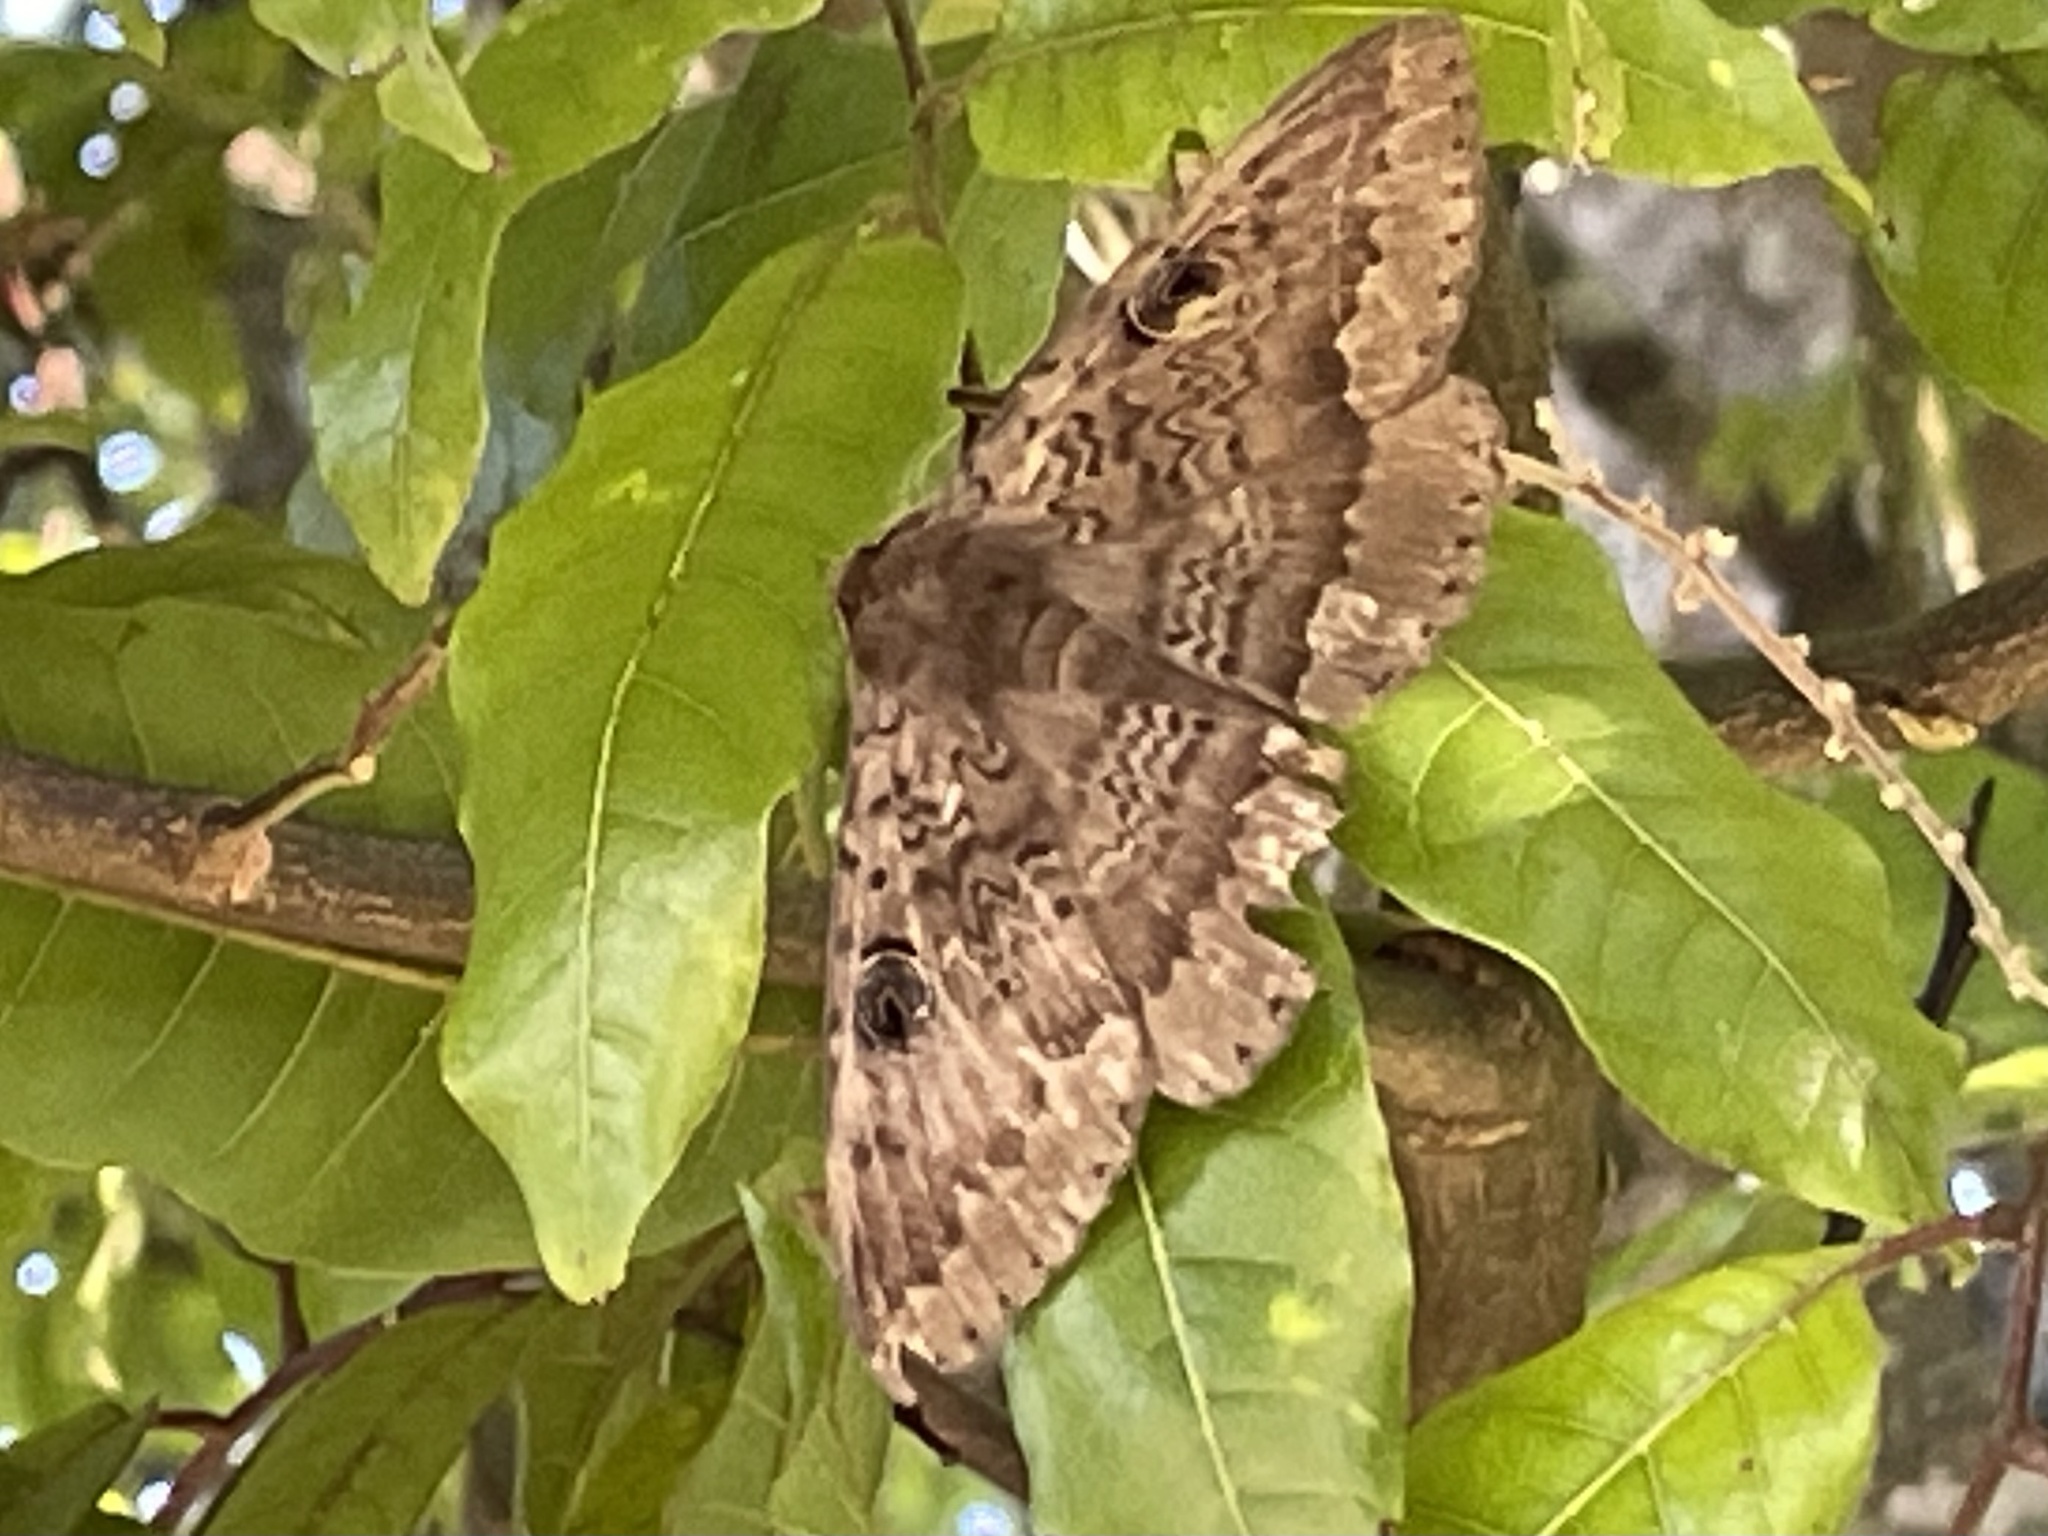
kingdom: Animalia
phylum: Arthropoda
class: Insecta
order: Lepidoptera
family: Erebidae
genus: Dasypodia
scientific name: Dasypodia cymatodes
